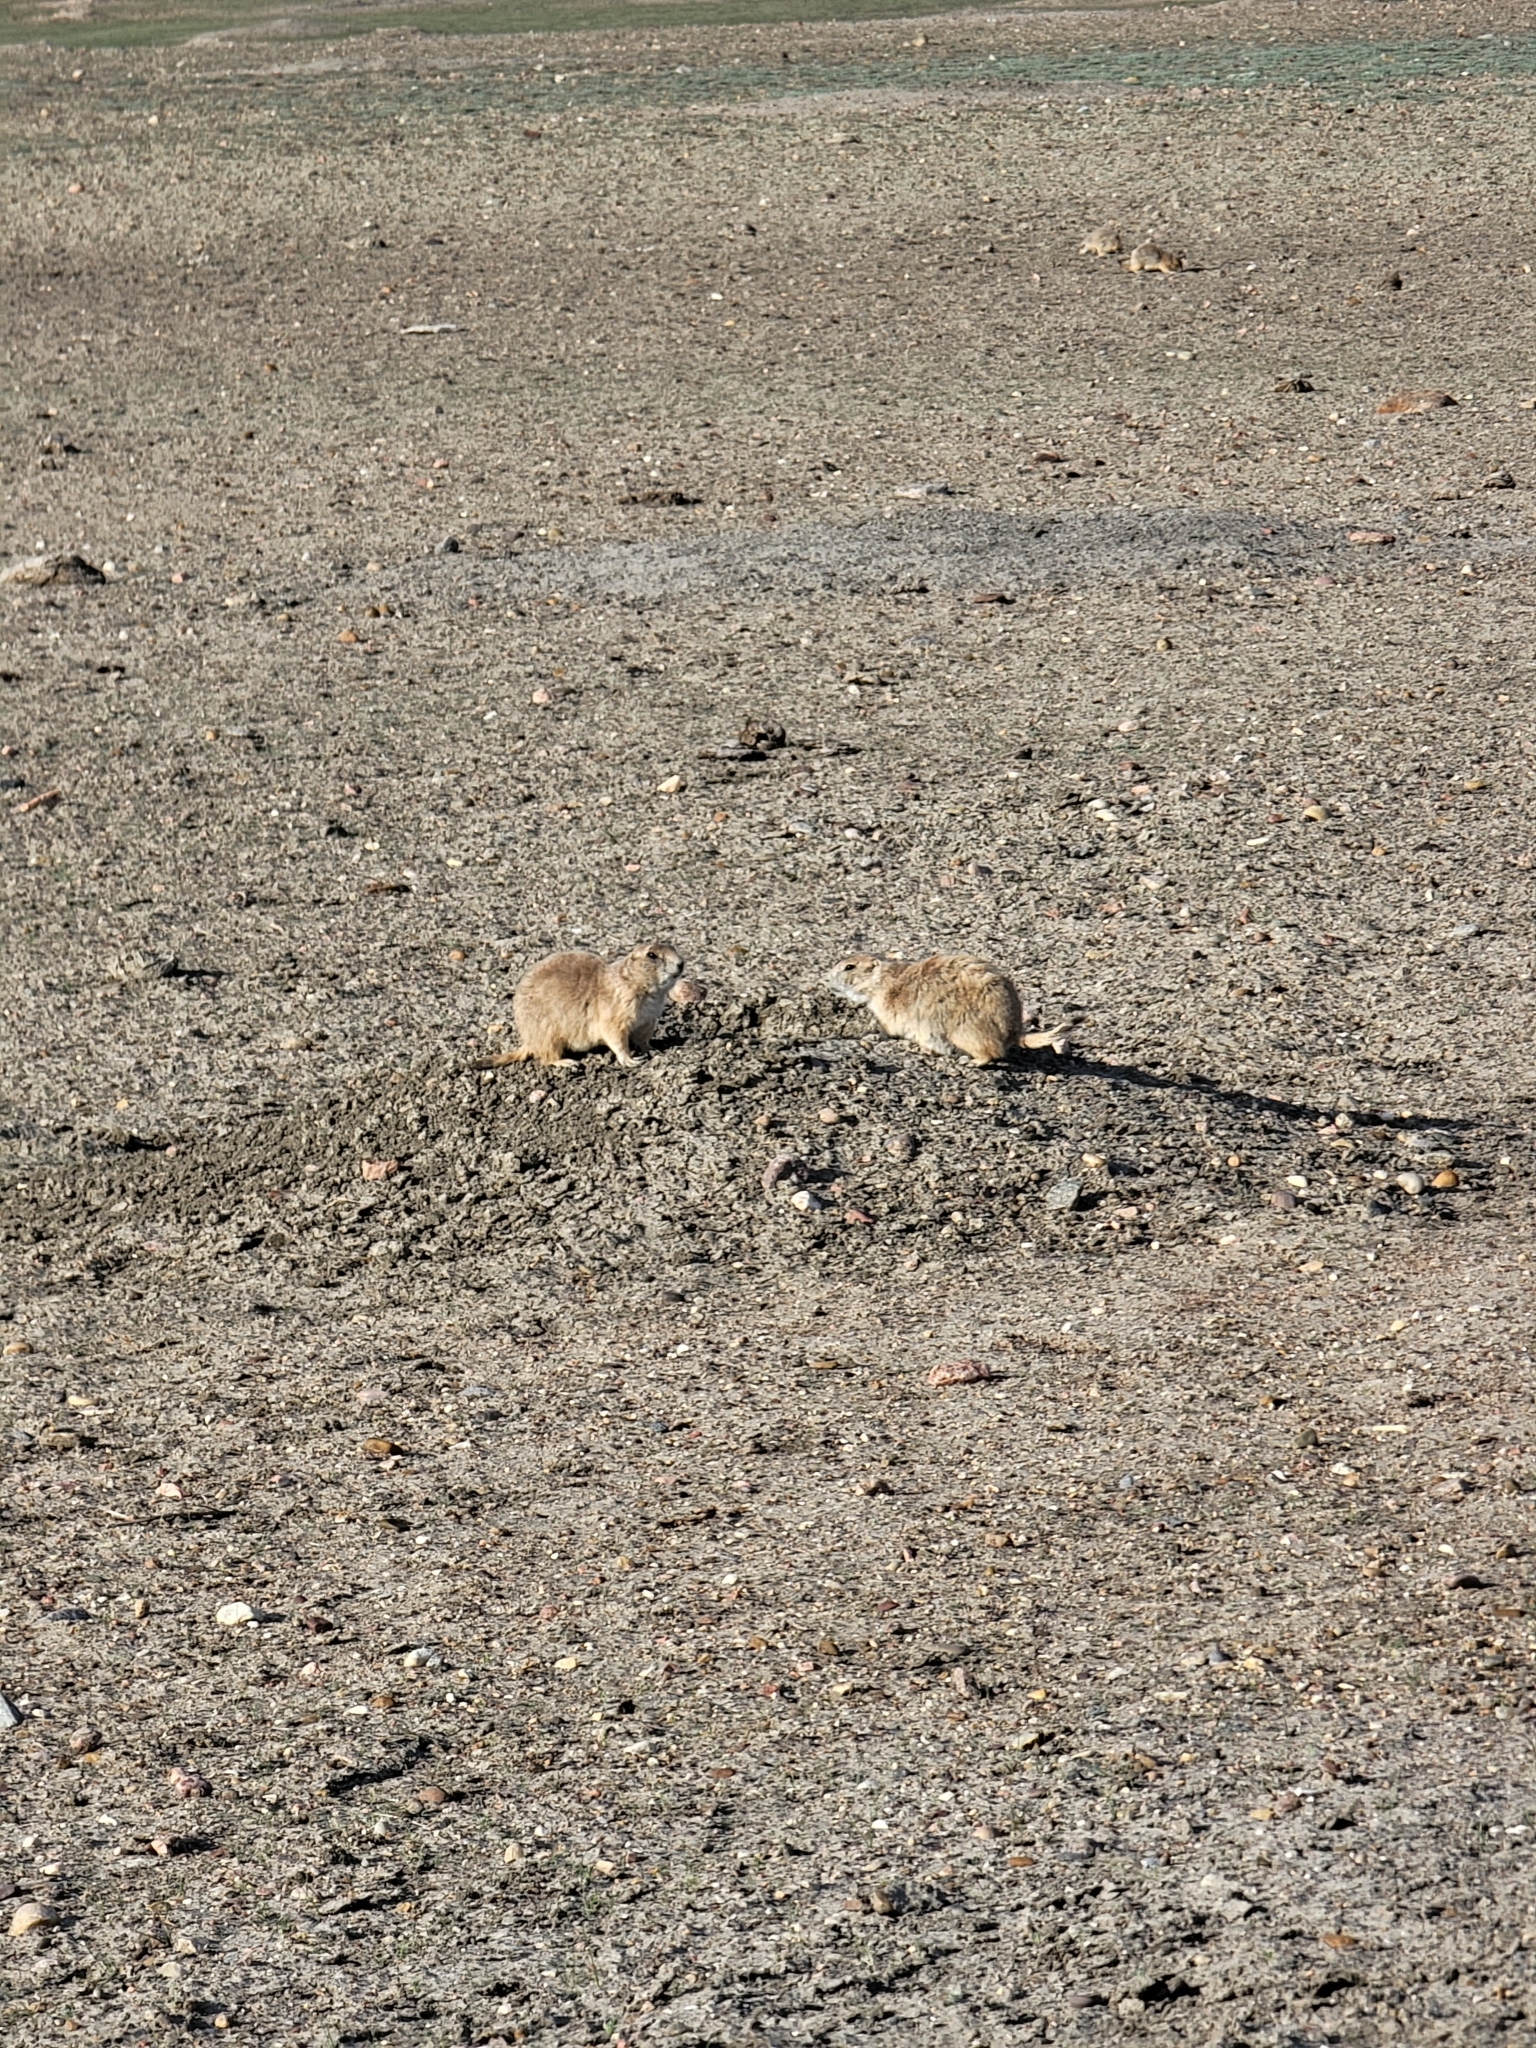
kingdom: Animalia
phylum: Chordata
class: Mammalia
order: Rodentia
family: Sciuridae
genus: Cynomys
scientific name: Cynomys ludovicianus
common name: Black-tailed prairie dog
